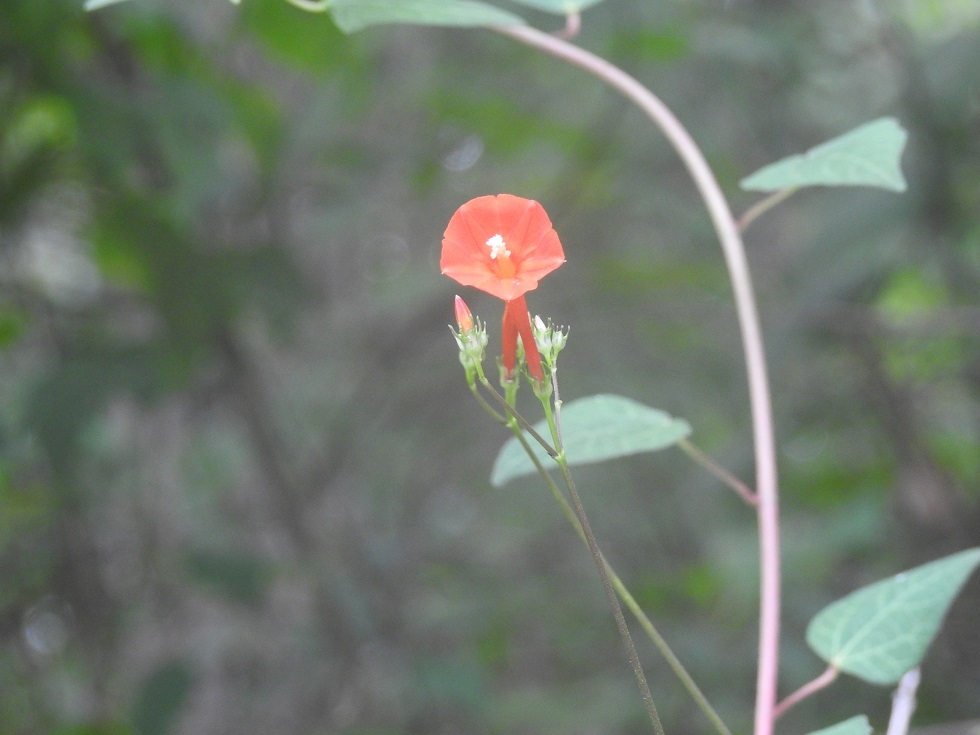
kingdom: Plantae
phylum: Tracheophyta
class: Magnoliopsida
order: Solanales
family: Convolvulaceae
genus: Ipomoea
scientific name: Ipomoea hederifolia
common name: Ivy-leaf morning-glory
